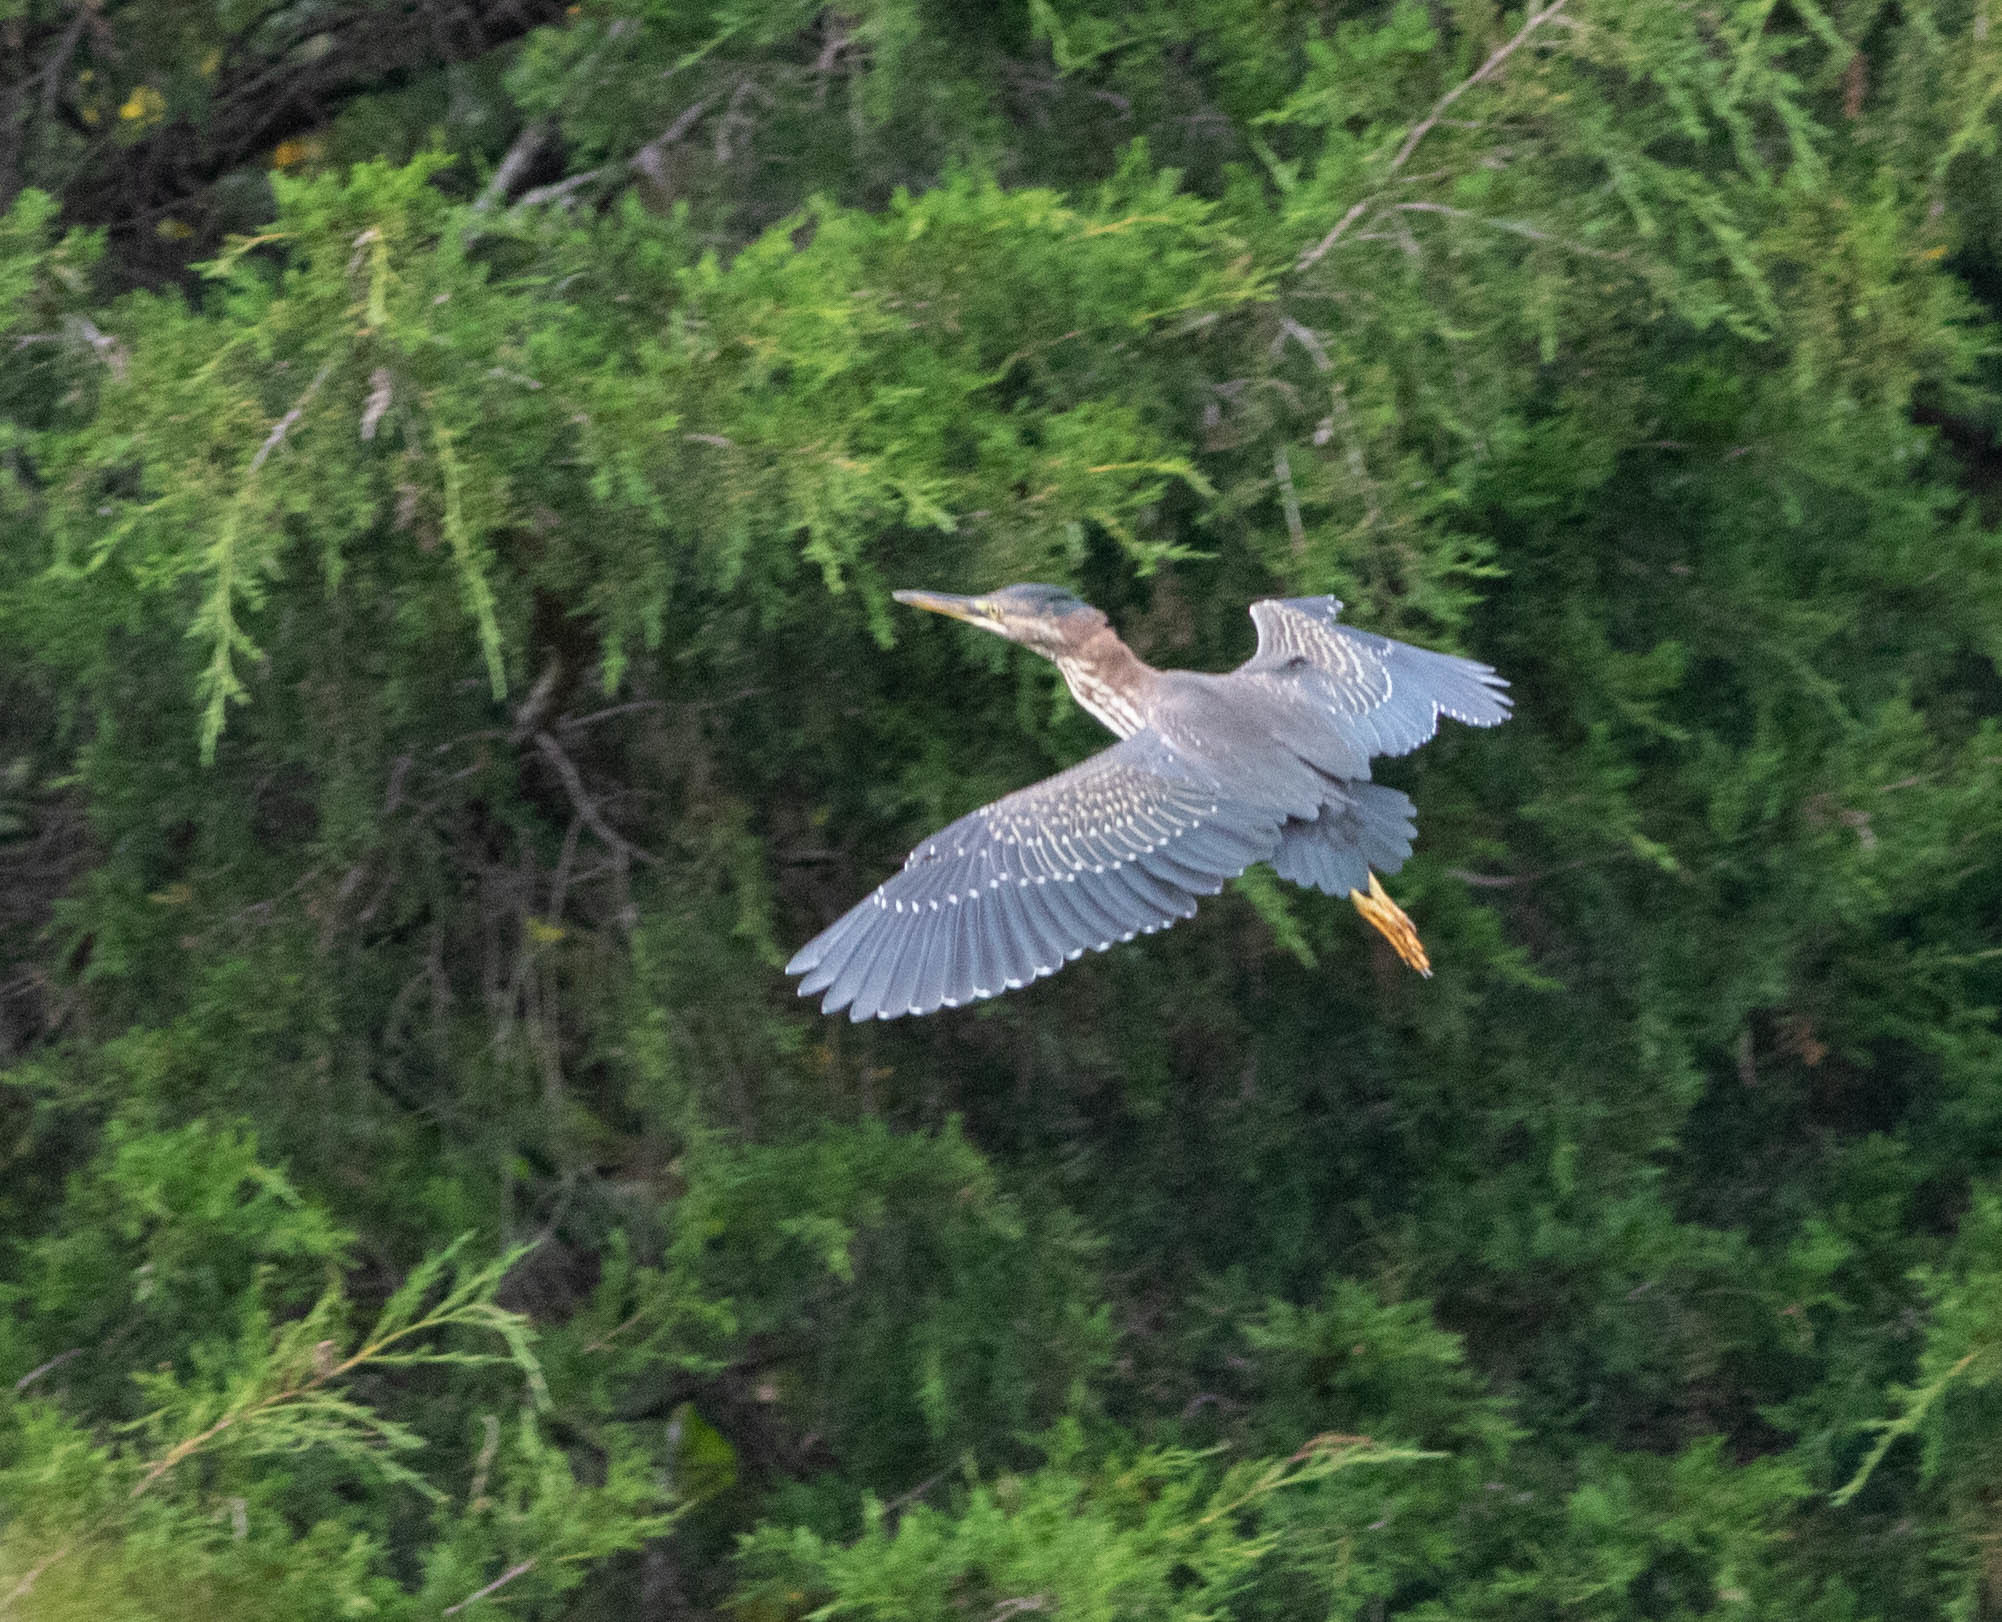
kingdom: Animalia
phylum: Chordata
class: Aves
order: Pelecaniformes
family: Ardeidae
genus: Butorides
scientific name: Butorides virescens
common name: Green heron
